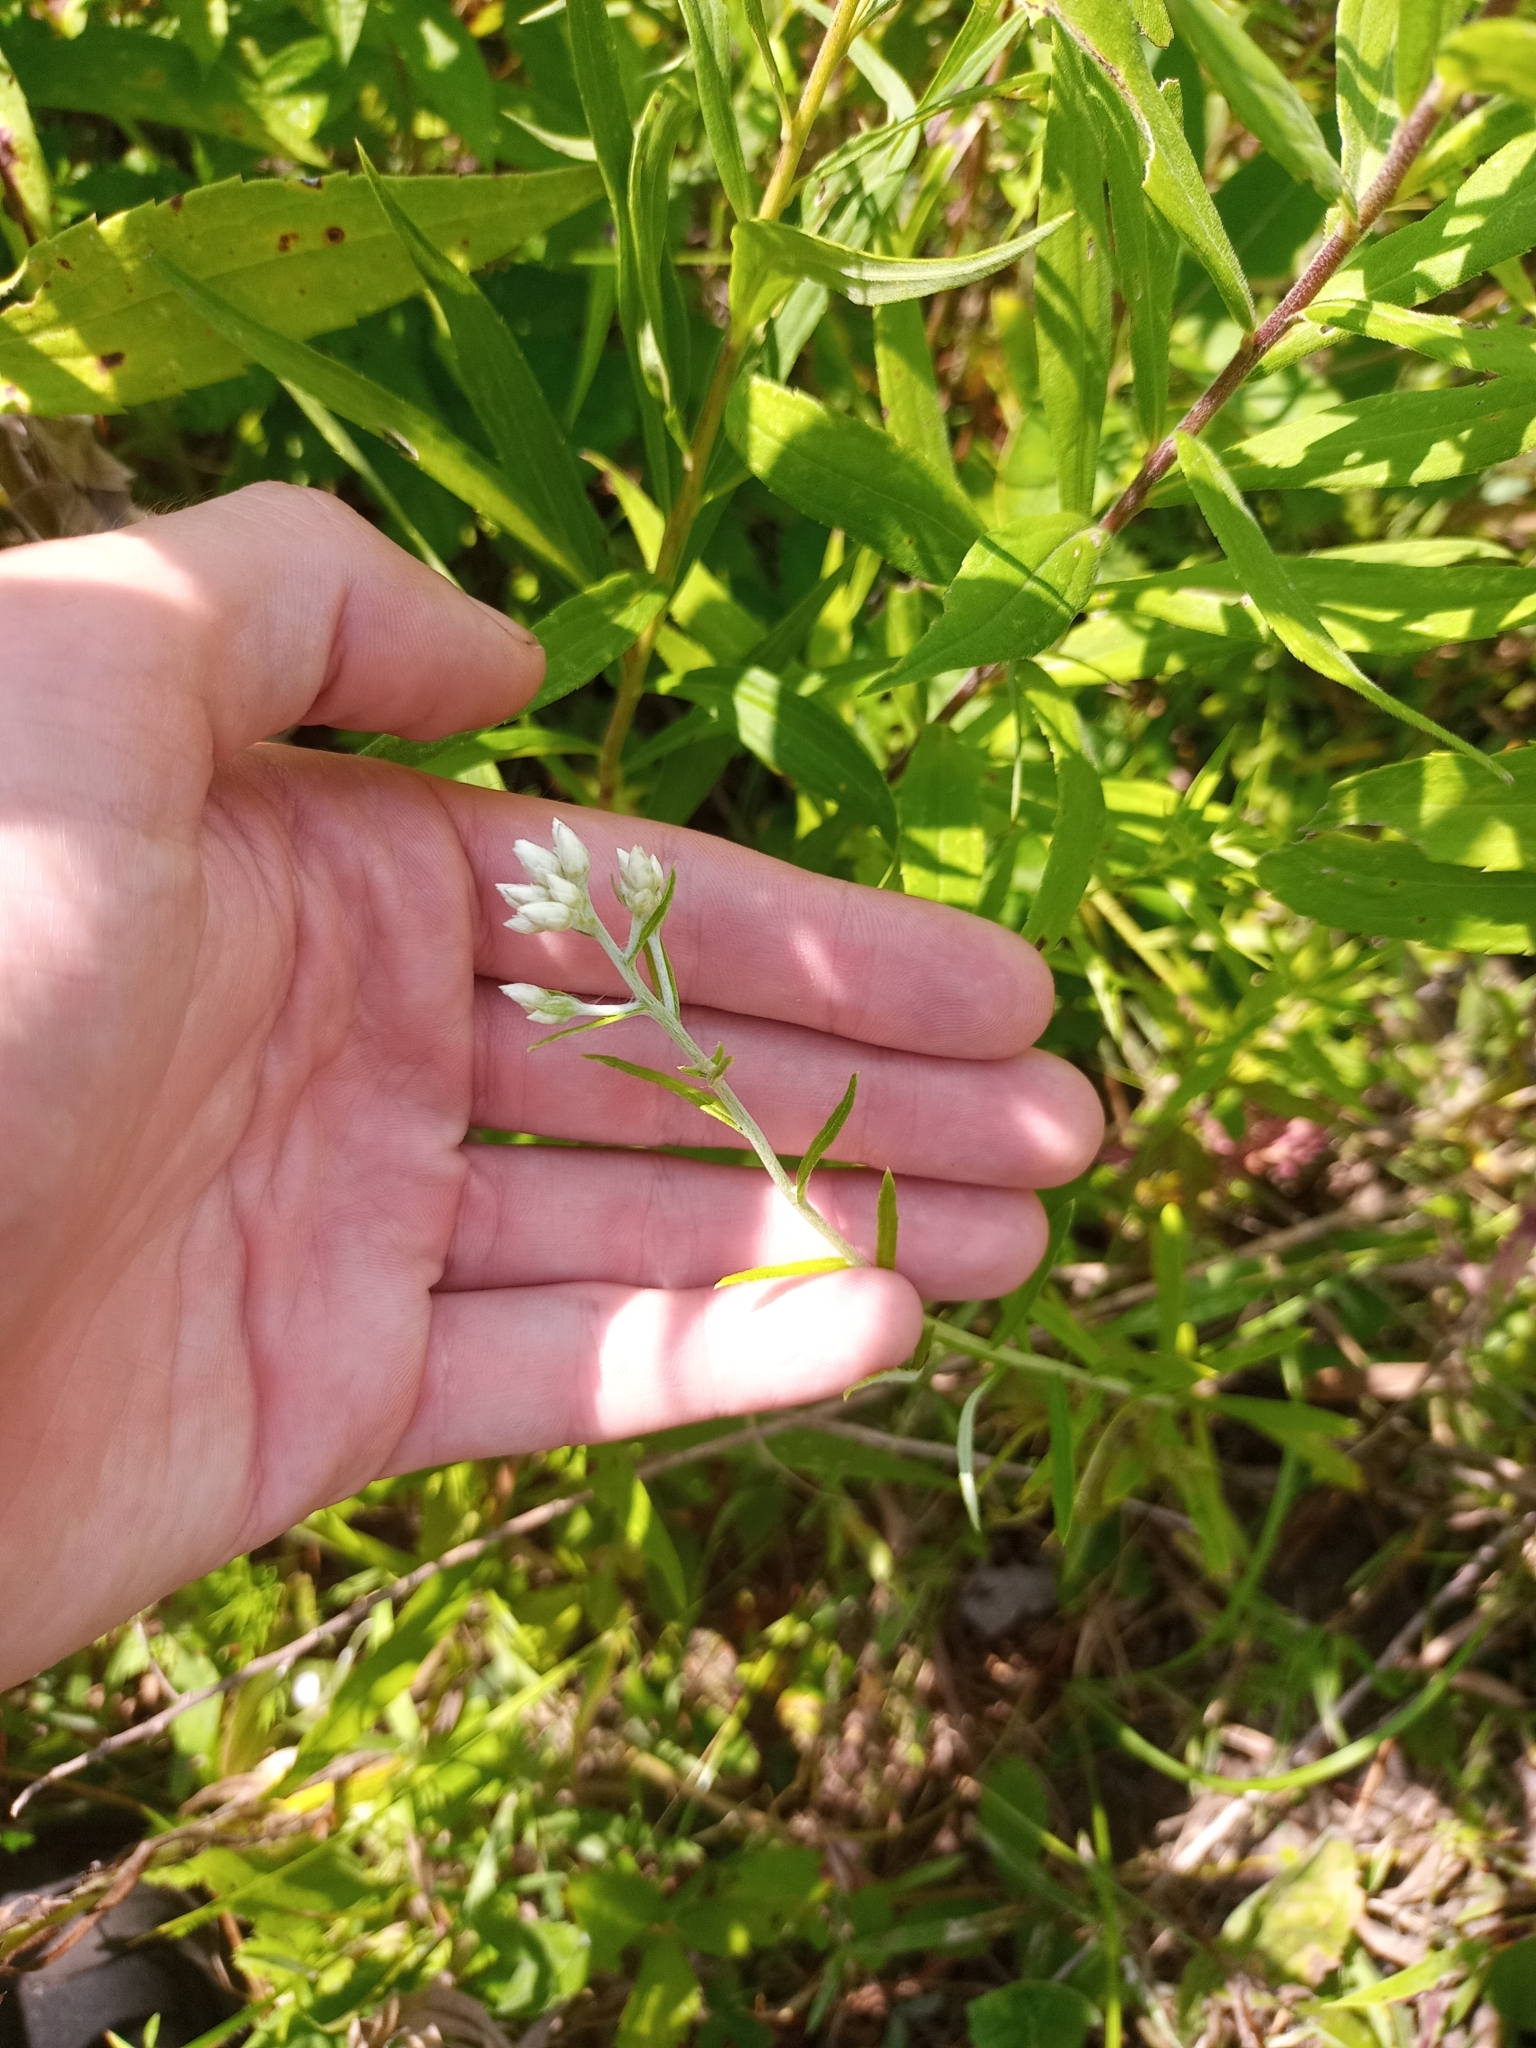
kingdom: Plantae
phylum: Tracheophyta
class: Magnoliopsida
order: Asterales
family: Asteraceae
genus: Pseudognaphalium
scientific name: Pseudognaphalium obtusifolium
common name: Eastern rabbit-tobacco
